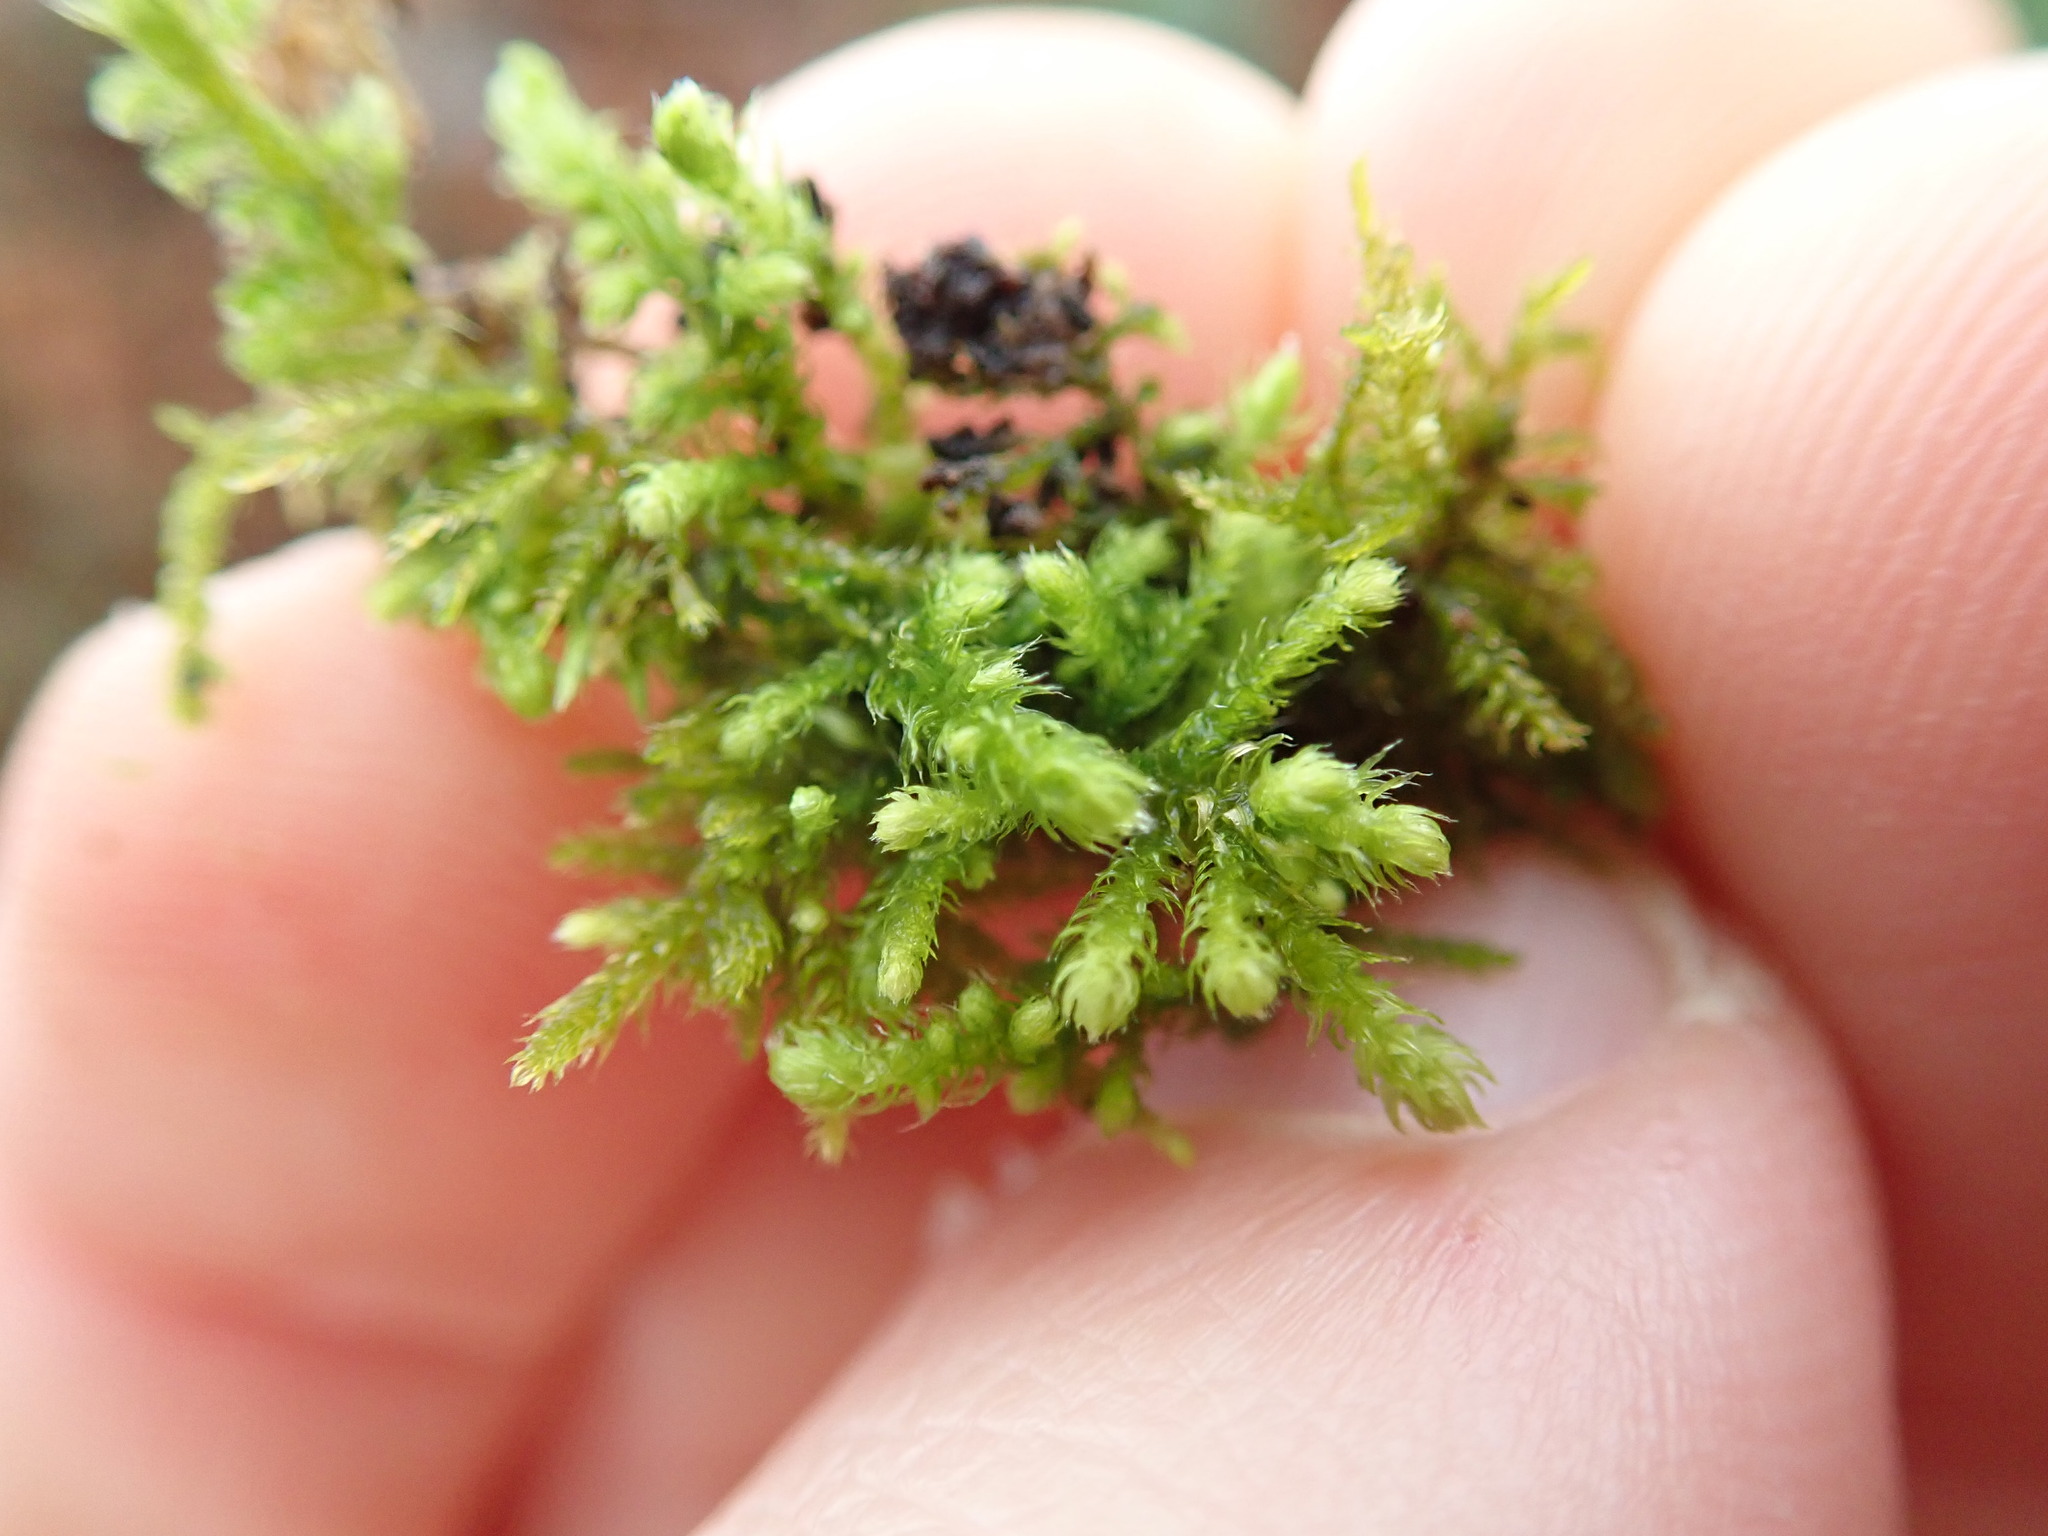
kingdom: Plantae
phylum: Bryophyta
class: Bryopsida
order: Hypnales
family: Brachytheciaceae
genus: Claopodium
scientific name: Claopodium crispifolium
